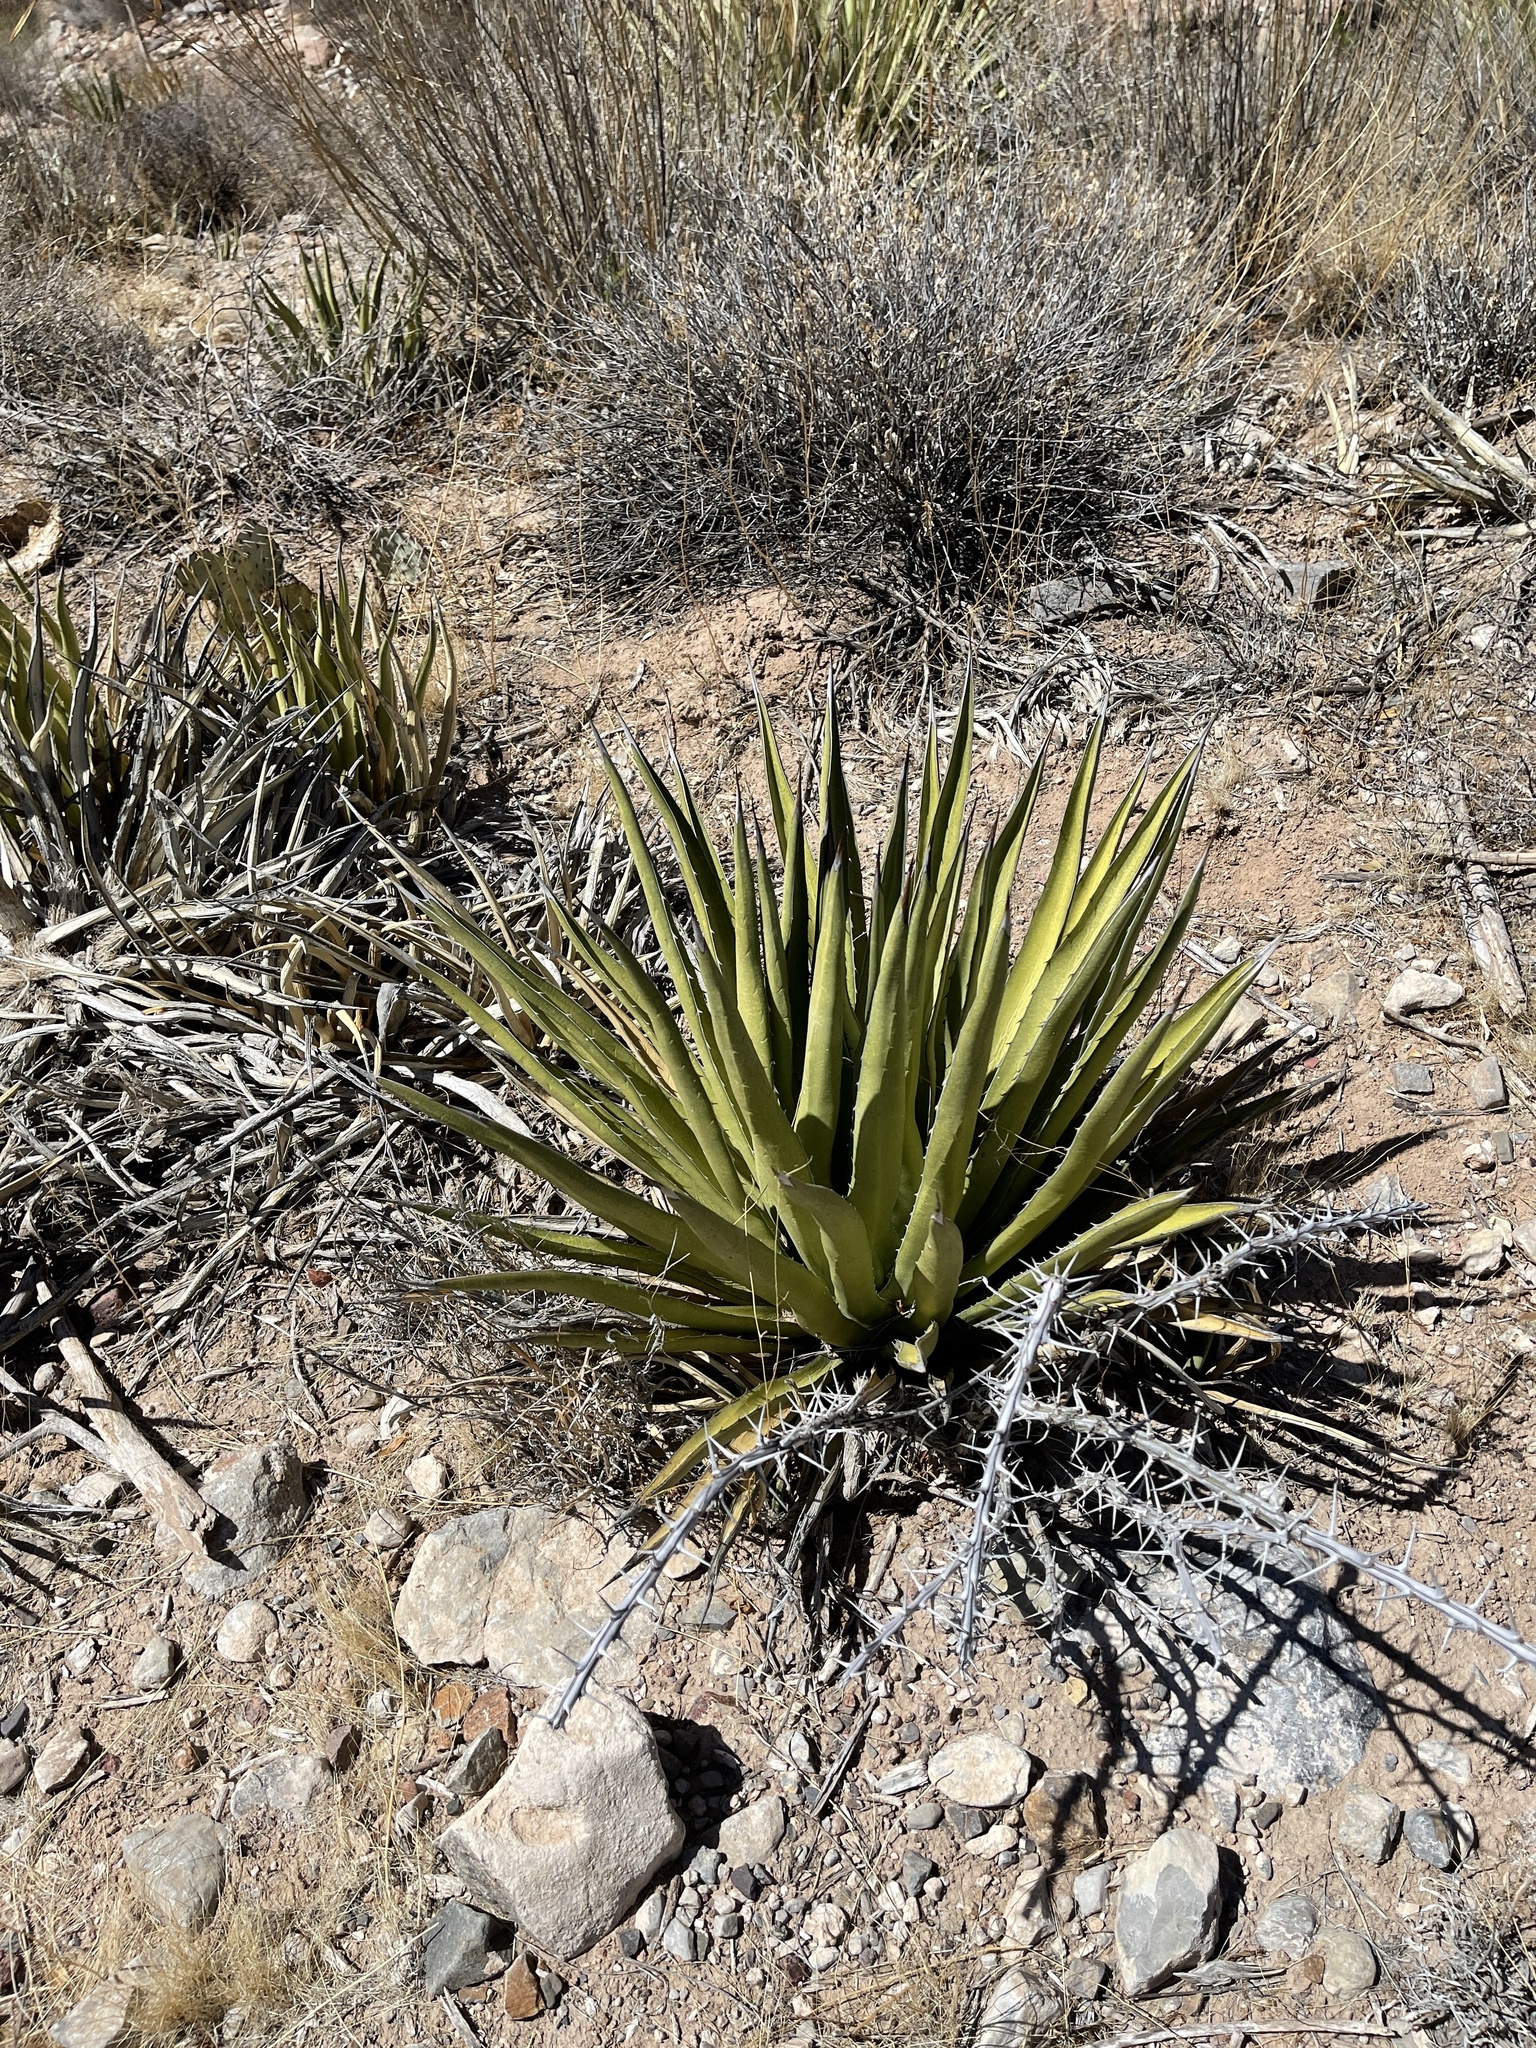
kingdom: Plantae
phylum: Tracheophyta
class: Liliopsida
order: Asparagales
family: Asparagaceae
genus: Agave
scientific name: Agave lechuguilla
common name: Lecheguilla agave
